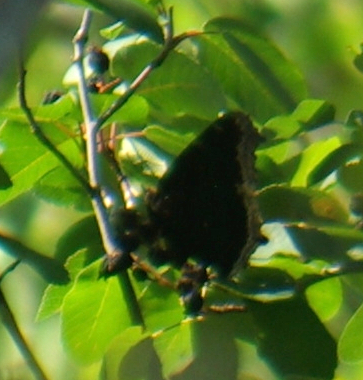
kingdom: Animalia
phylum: Arthropoda
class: Insecta
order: Lepidoptera
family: Nymphalidae
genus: Nymphalis
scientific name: Nymphalis antiopa
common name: Camberwell beauty
